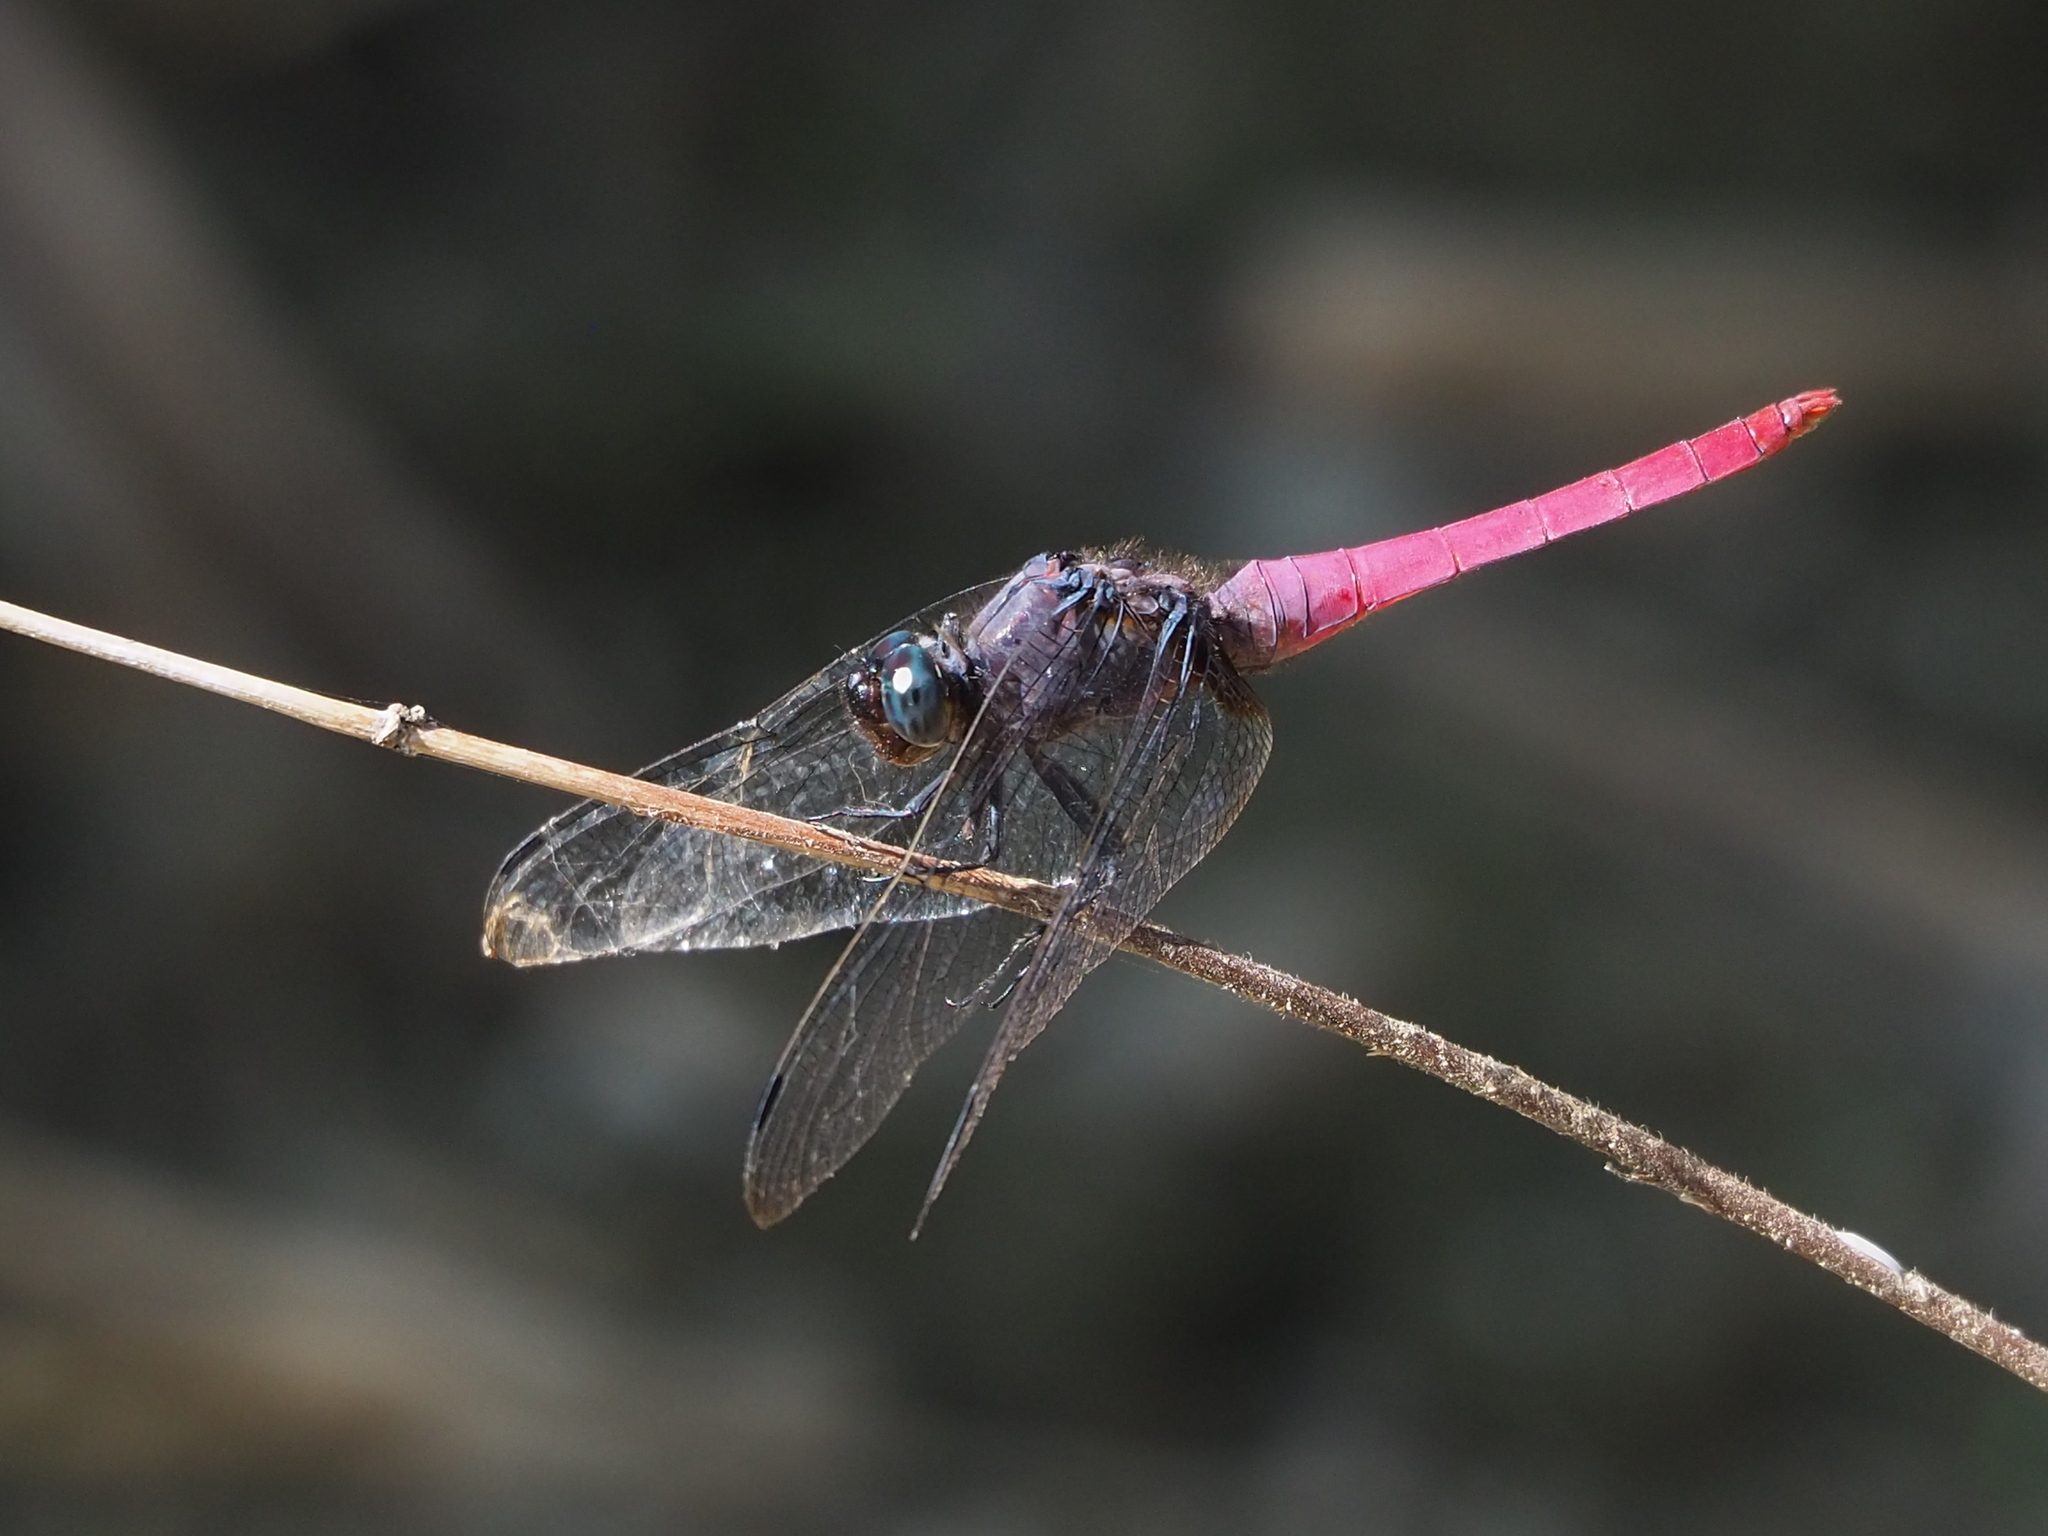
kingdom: Animalia
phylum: Arthropoda
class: Insecta
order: Odonata
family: Libellulidae
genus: Orthetrum
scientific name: Orthetrum pruinosum
